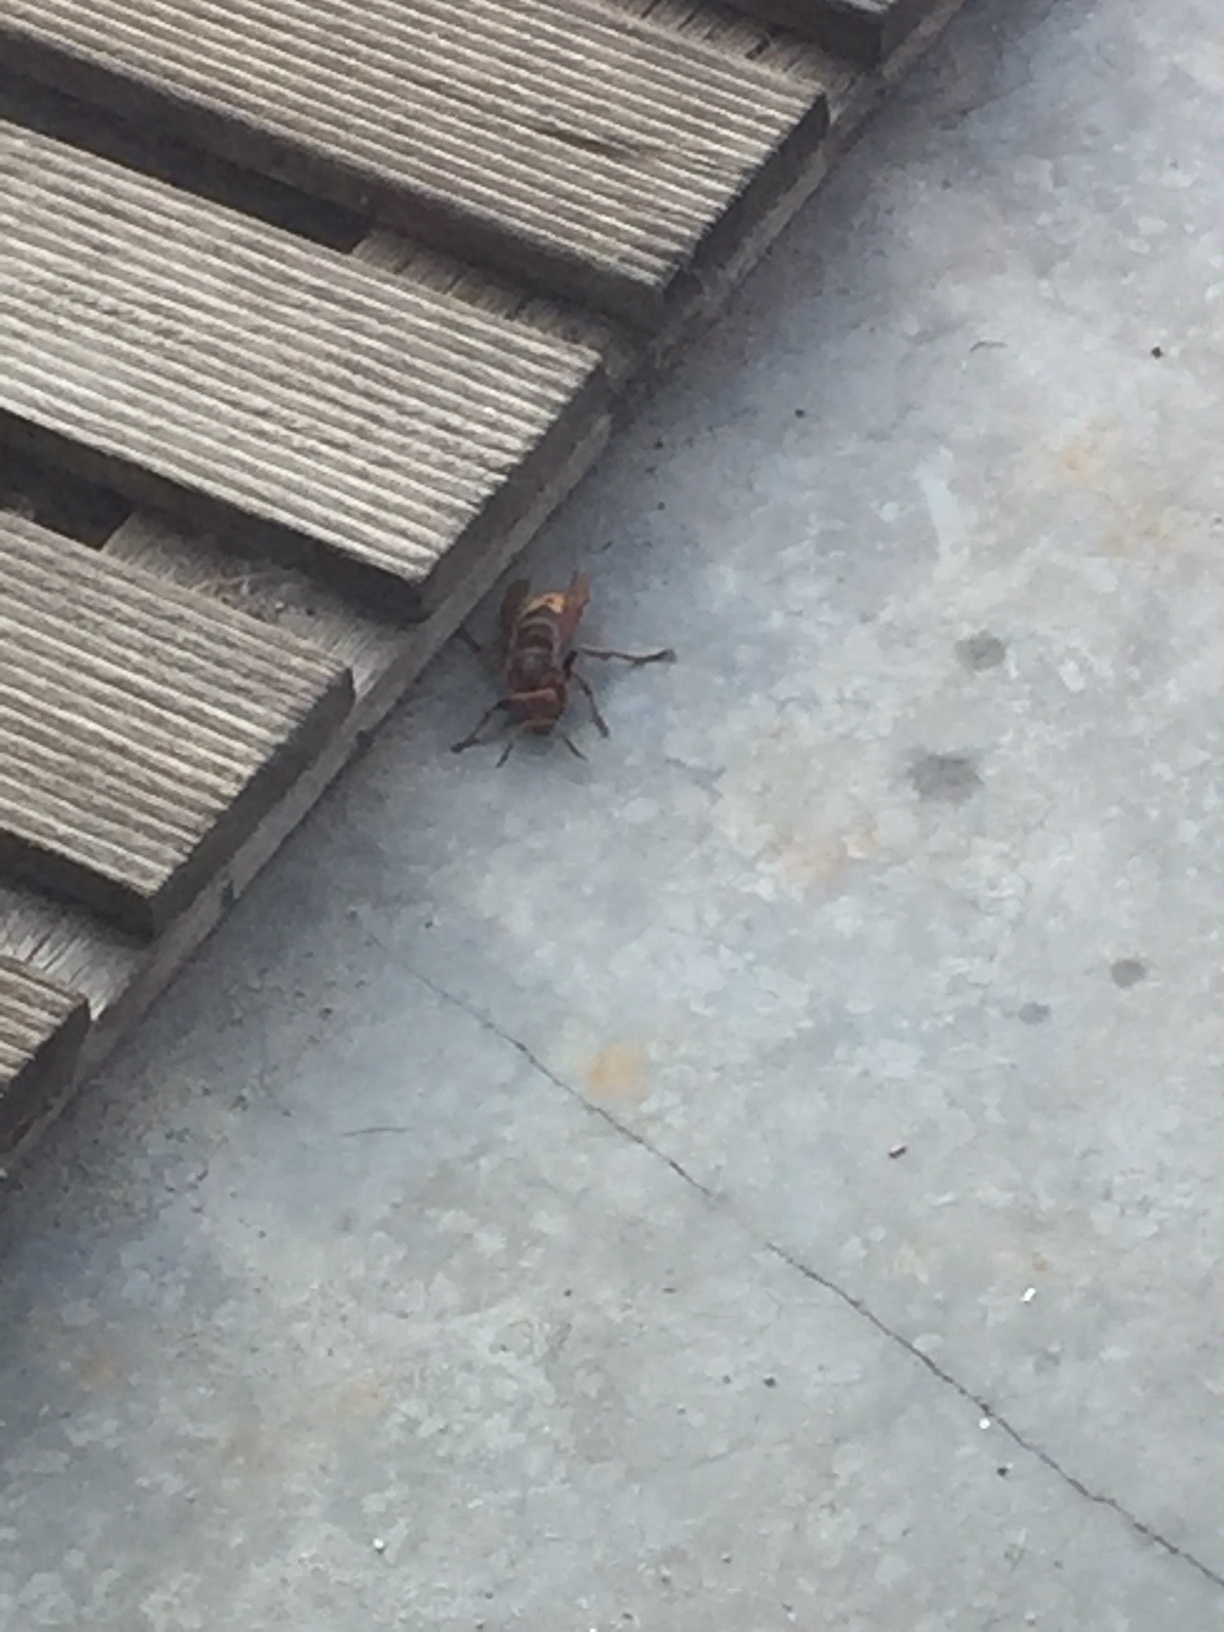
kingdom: Animalia
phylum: Arthropoda
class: Insecta
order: Hymenoptera
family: Vespidae
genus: Vespa
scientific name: Vespa crabro
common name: Hornet
